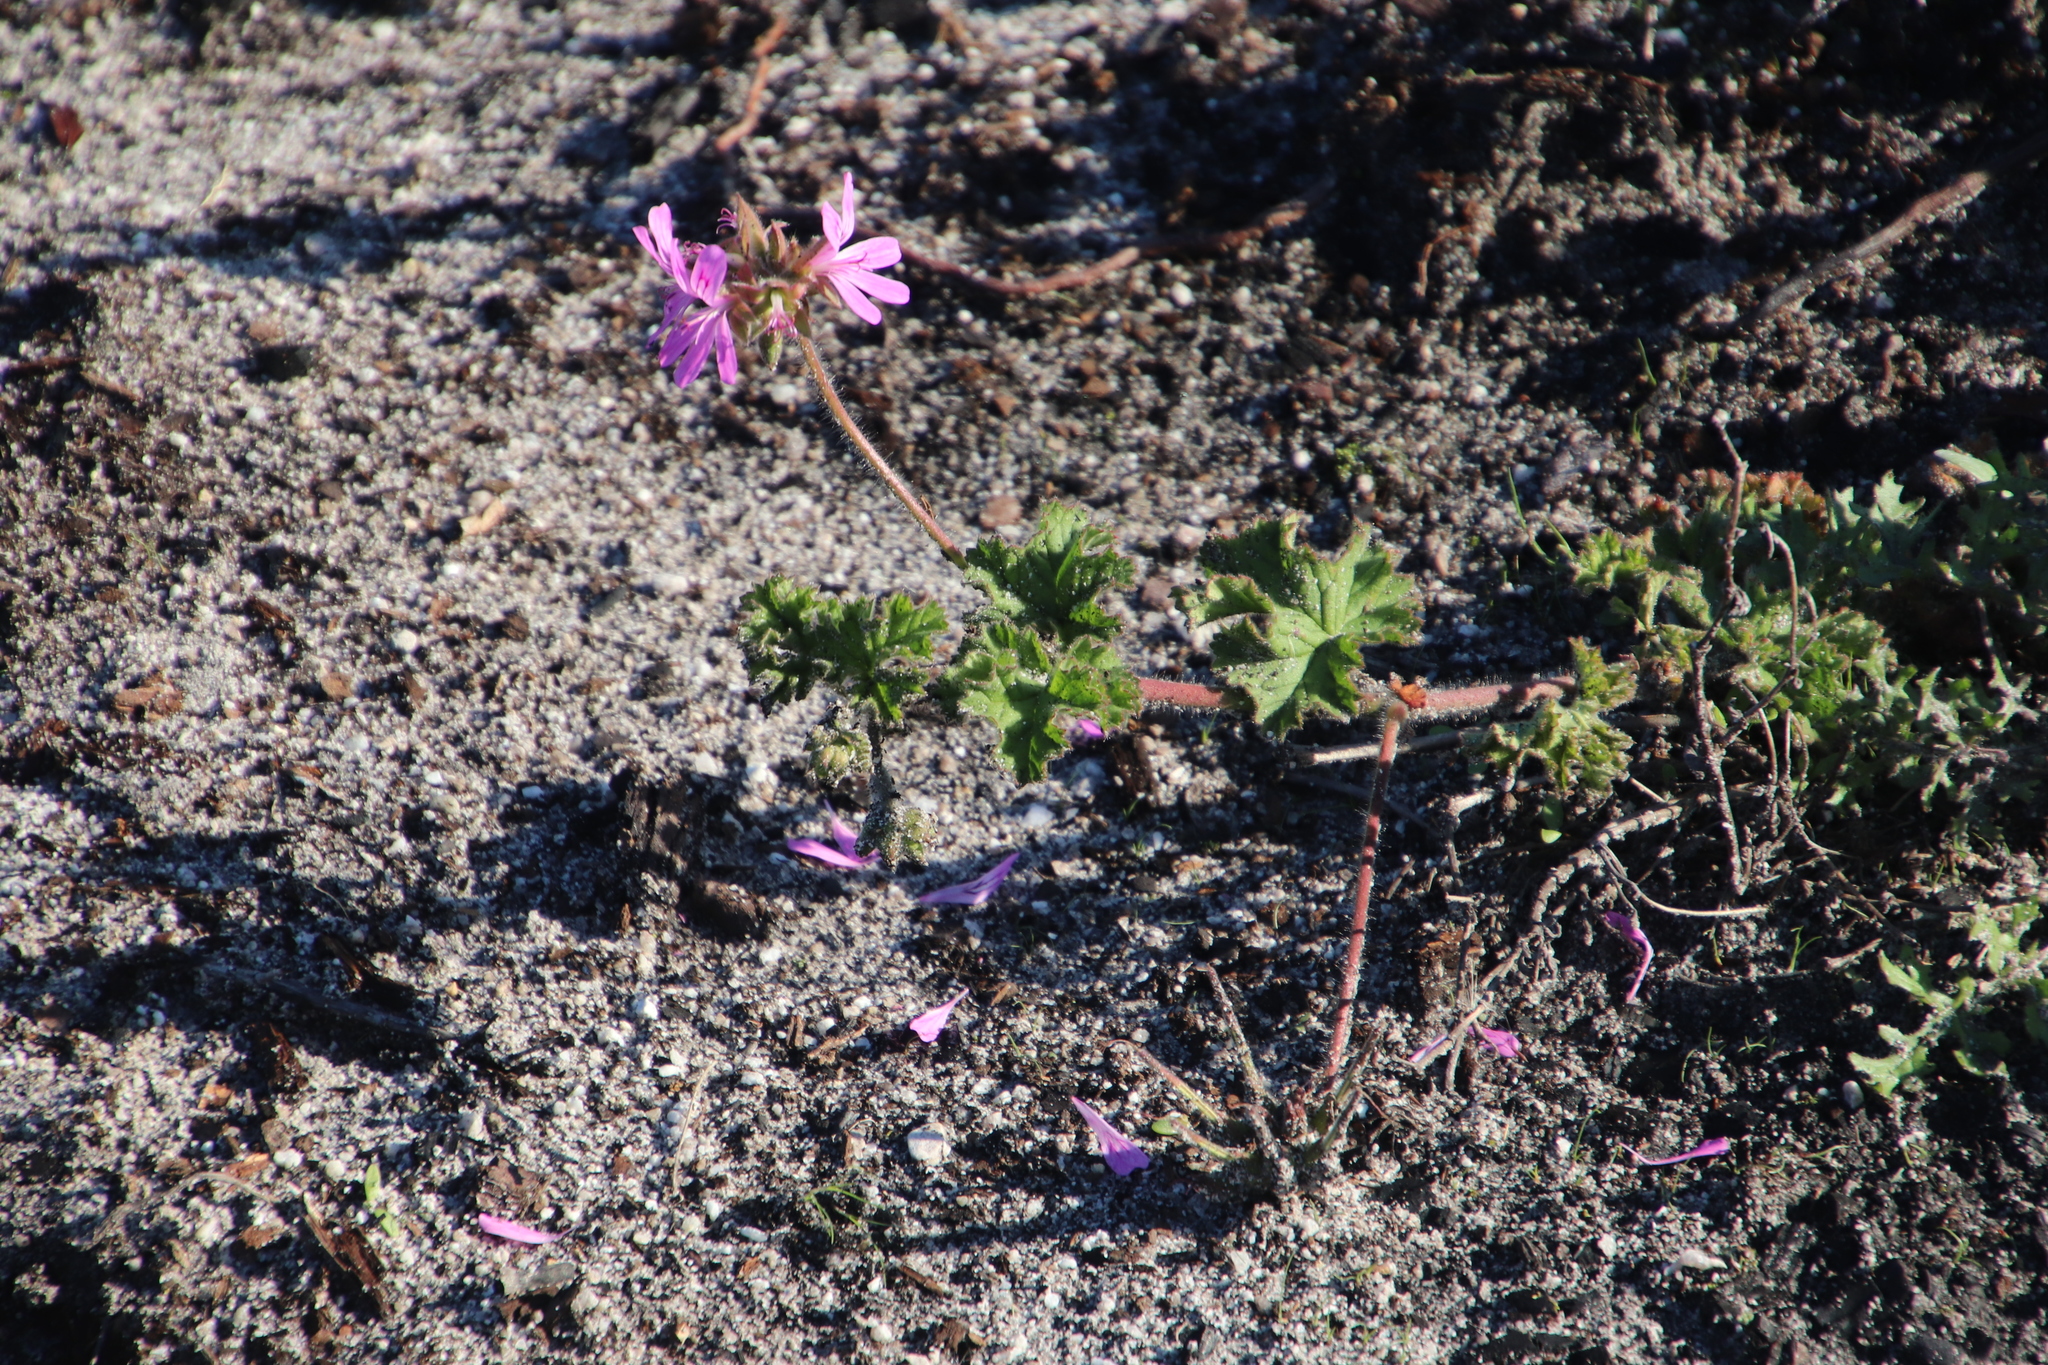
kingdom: Plantae
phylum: Tracheophyta
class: Magnoliopsida
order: Geraniales
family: Geraniaceae
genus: Pelargonium
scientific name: Pelargonium capitatum
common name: Rose scented geranium
